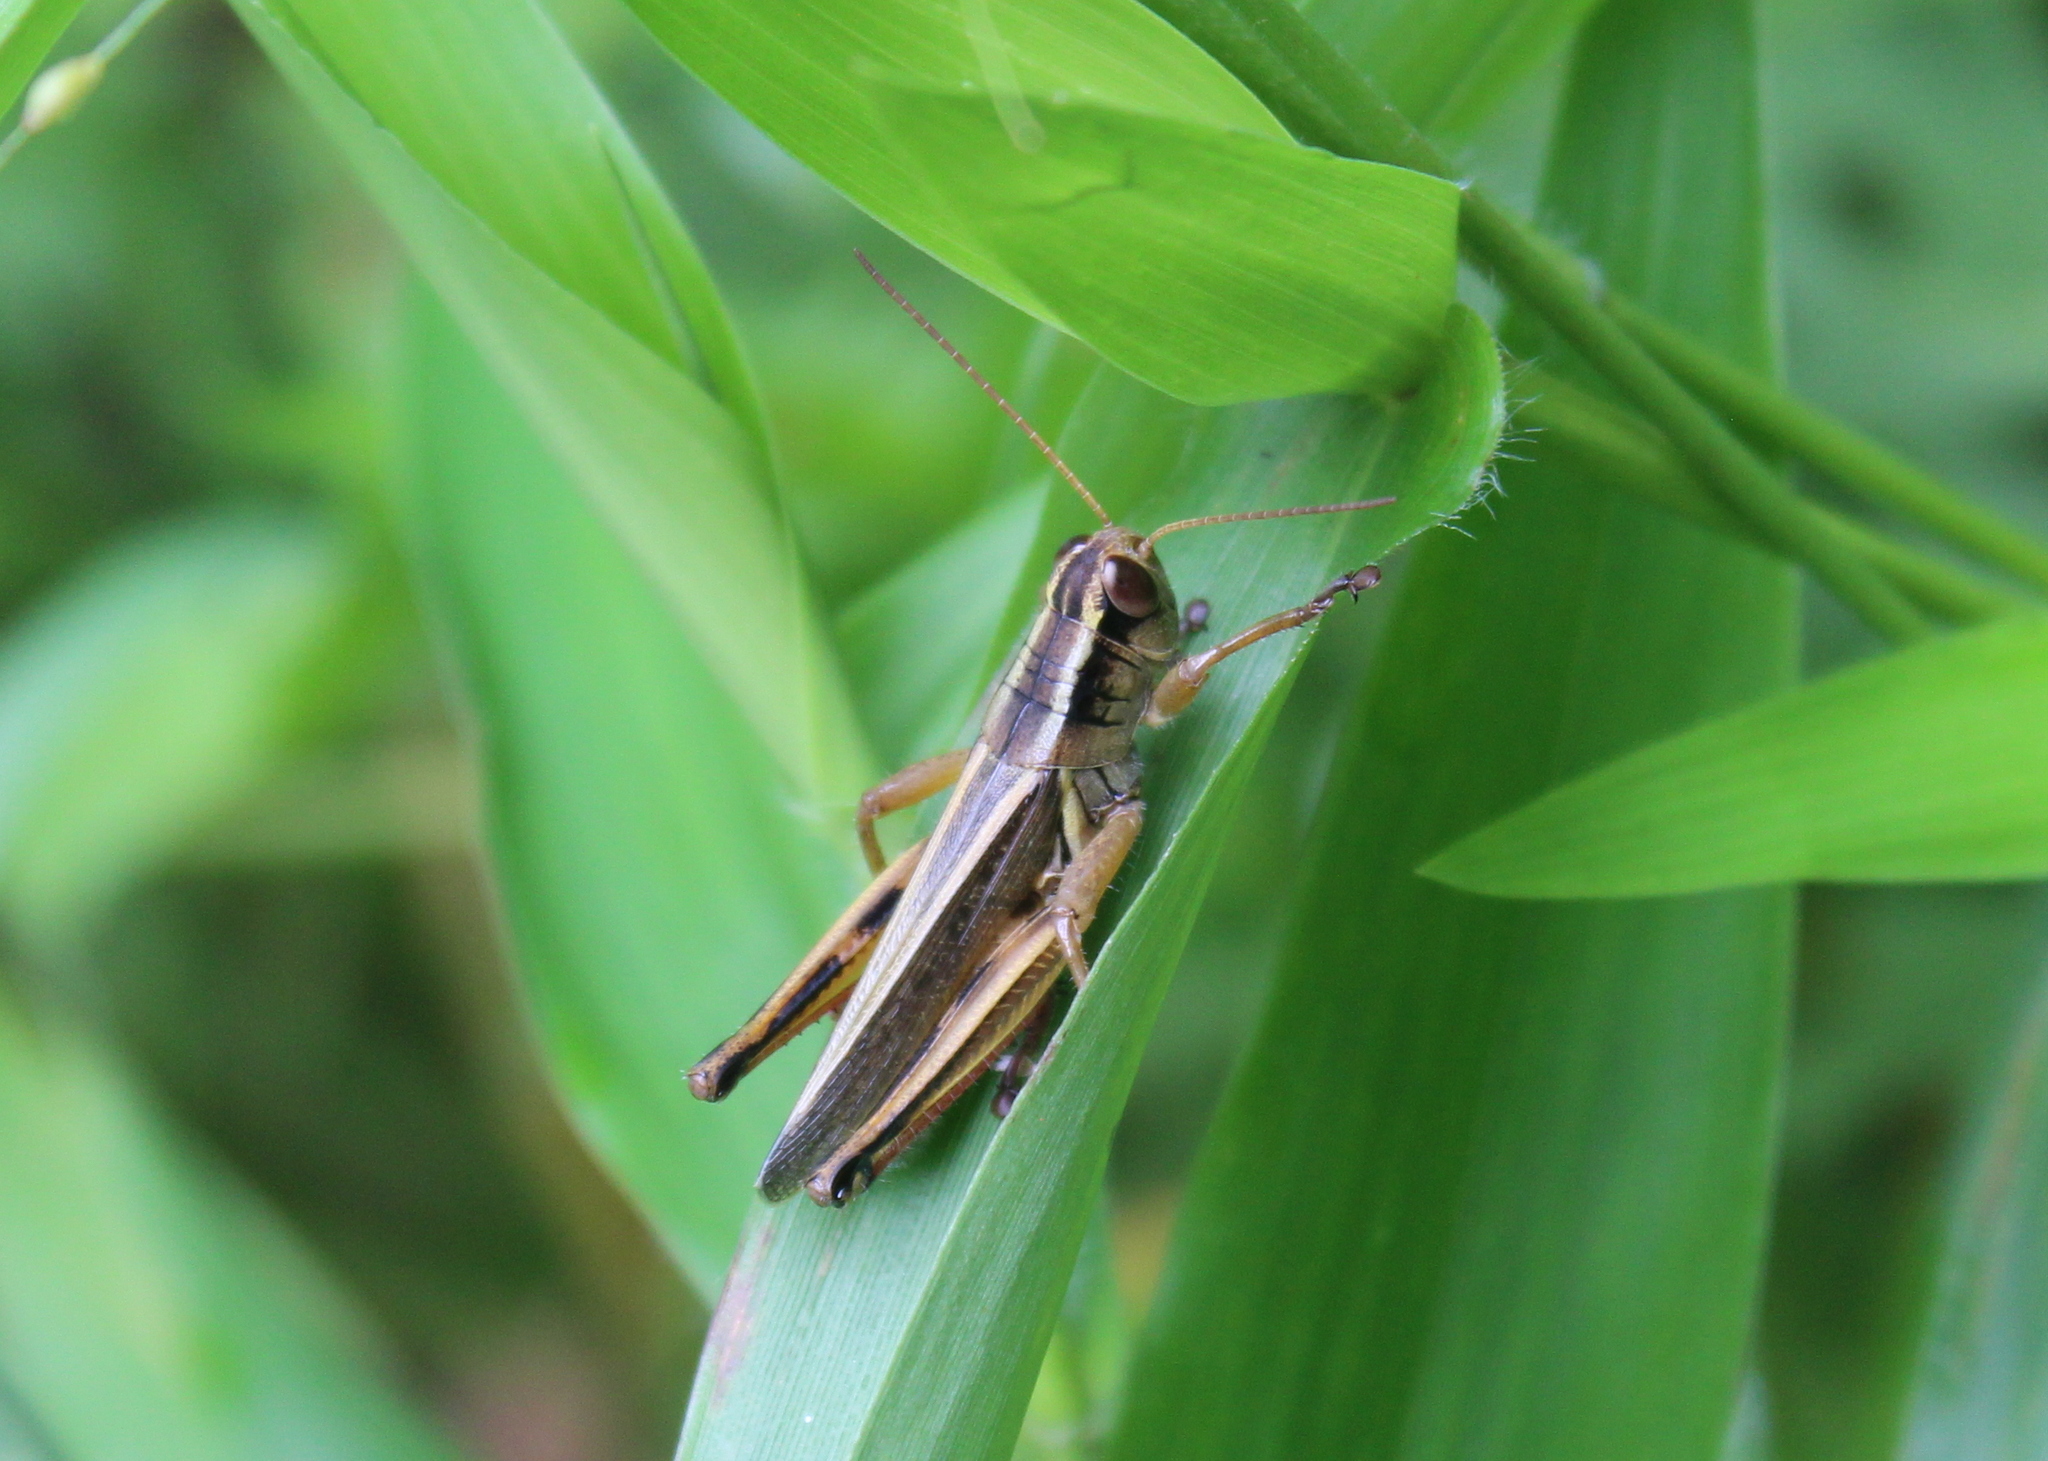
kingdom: Animalia
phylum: Arthropoda
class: Insecta
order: Orthoptera
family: Acrididae
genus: Melanoplus
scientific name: Melanoplus bivittatus
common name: Two-striped grasshopper
